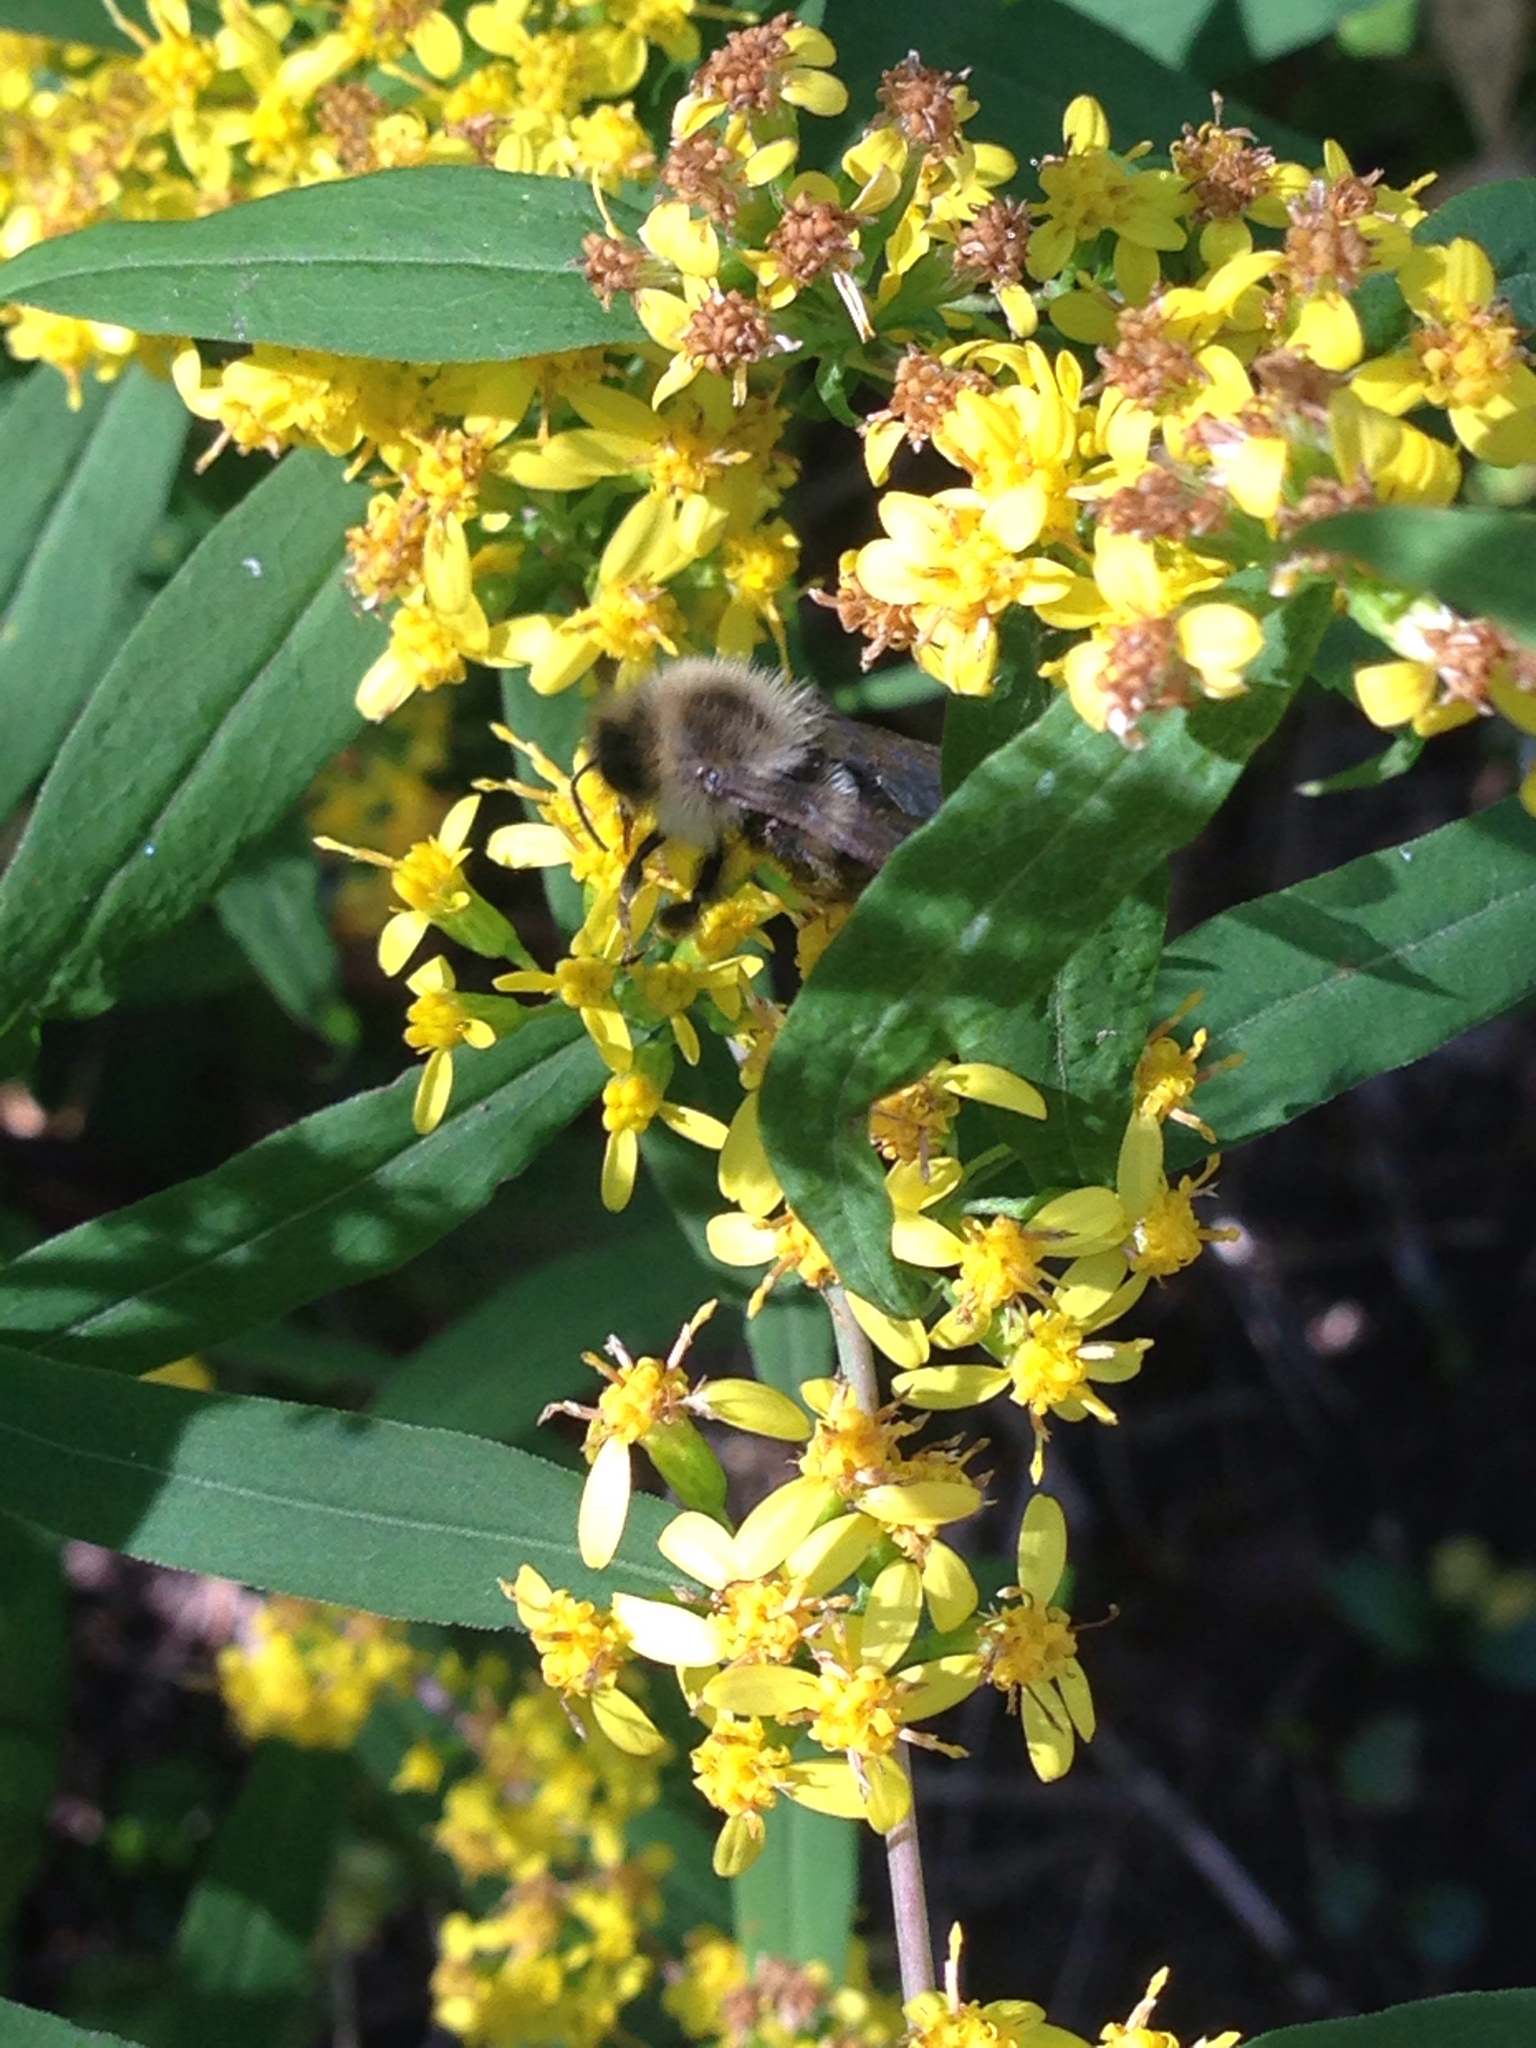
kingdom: Animalia
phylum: Arthropoda
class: Insecta
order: Hymenoptera
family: Apidae
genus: Bombus
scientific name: Bombus impatiens
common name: Common eastern bumble bee
